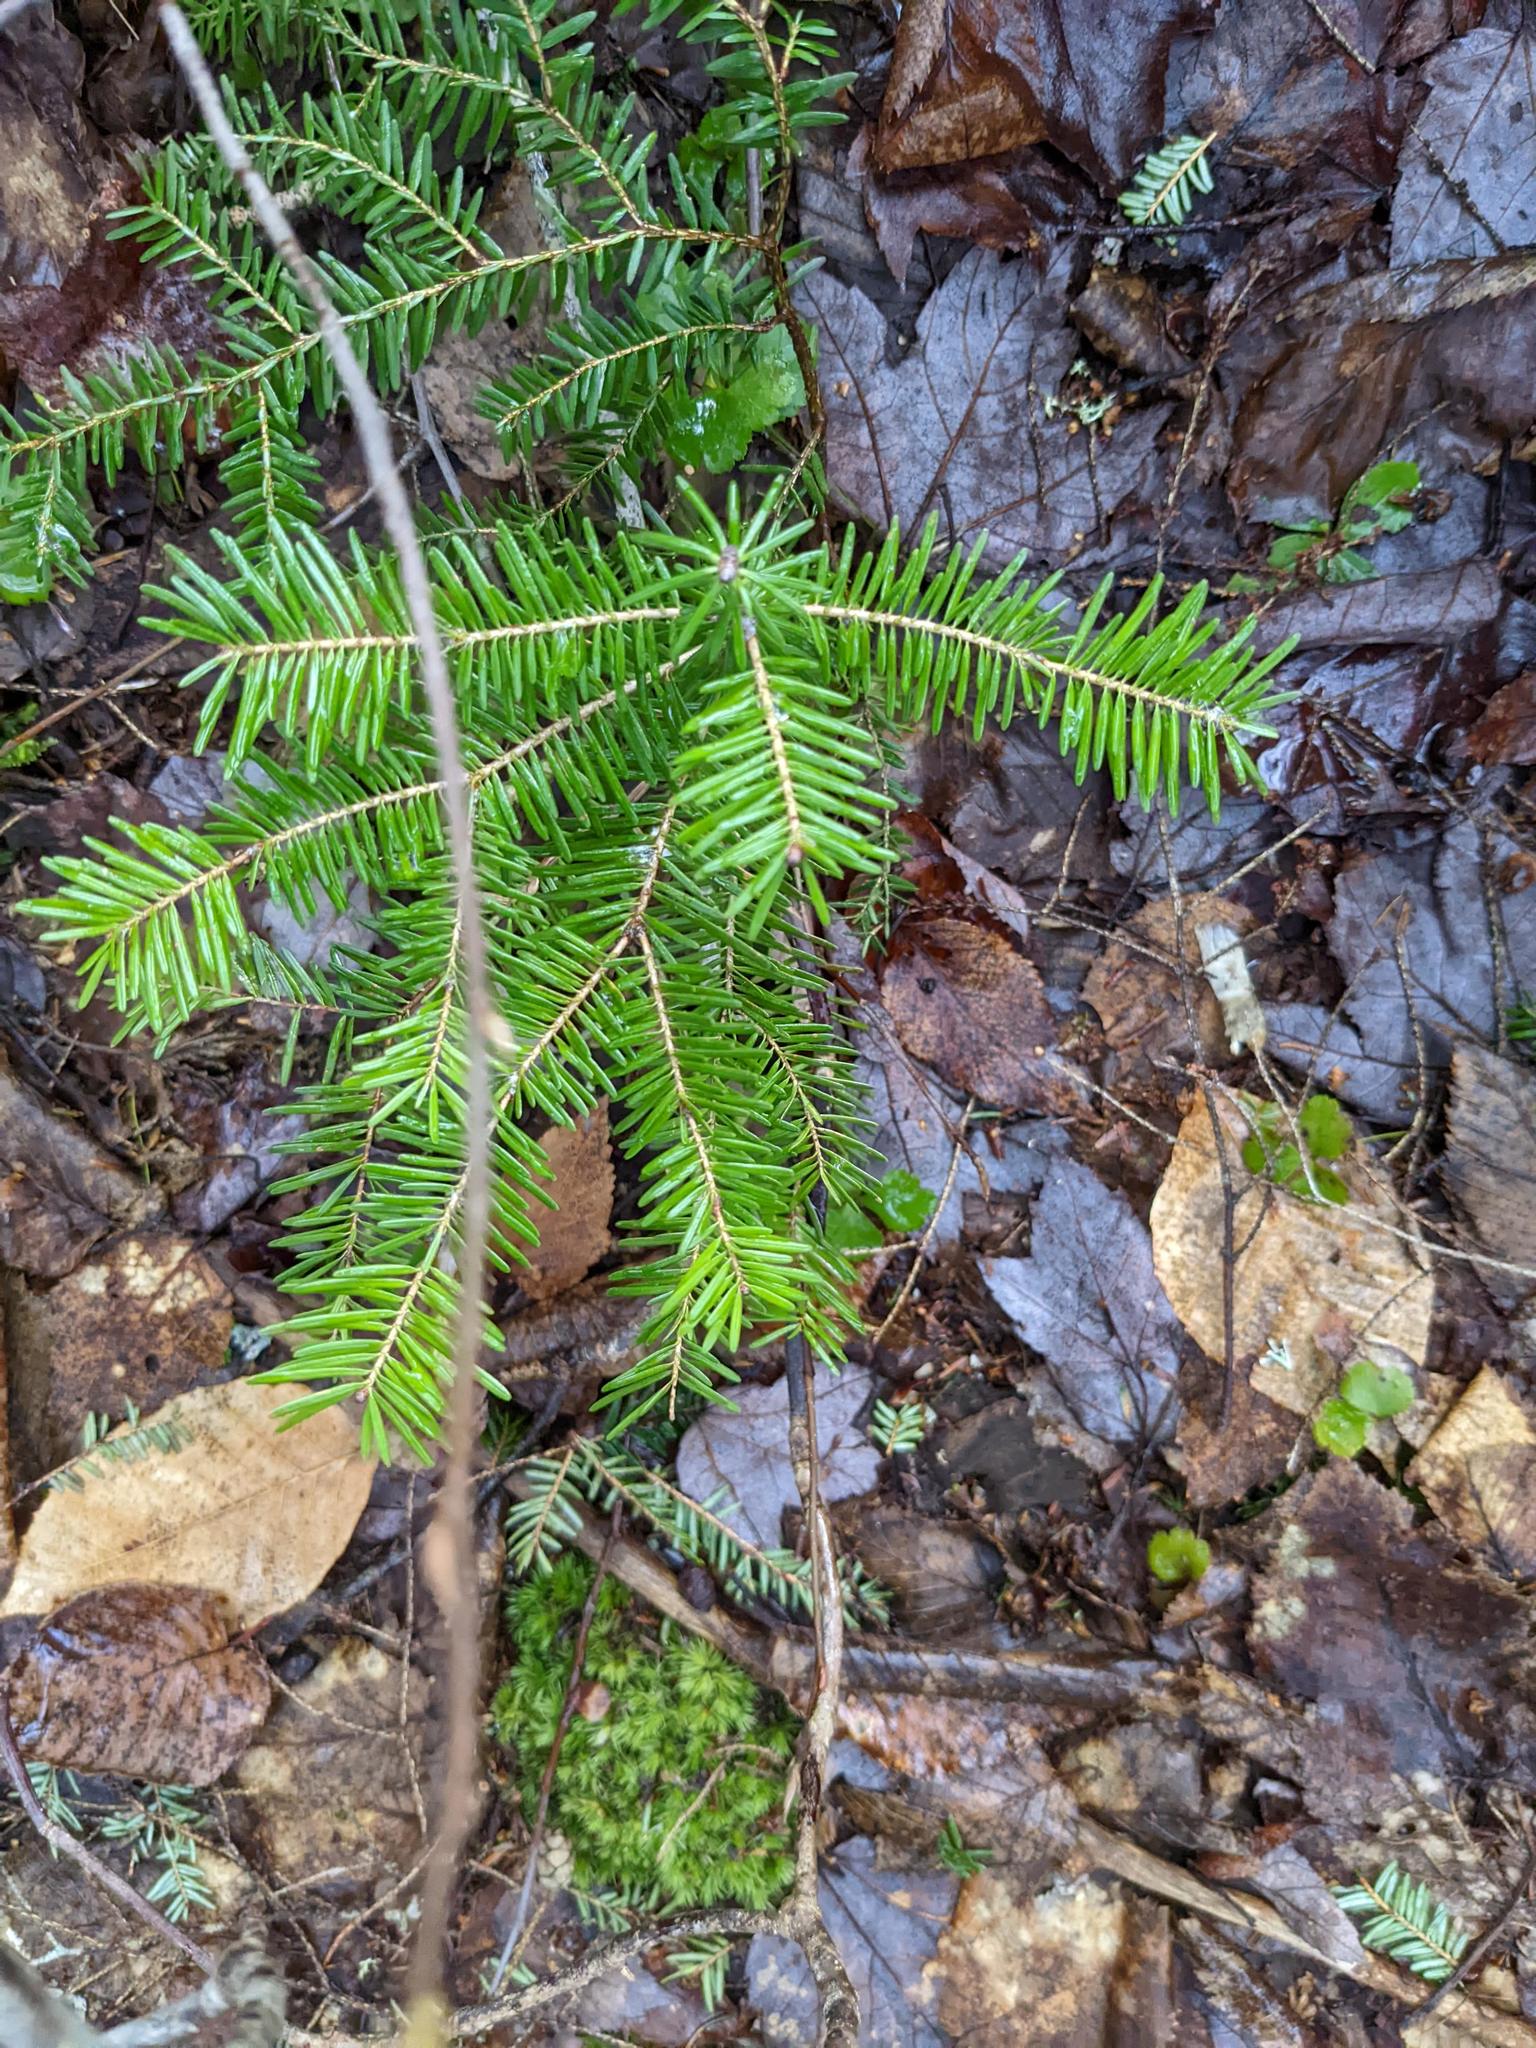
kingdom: Plantae
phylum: Tracheophyta
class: Pinopsida
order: Pinales
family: Pinaceae
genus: Abies
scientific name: Abies balsamea
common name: Balsam fir
